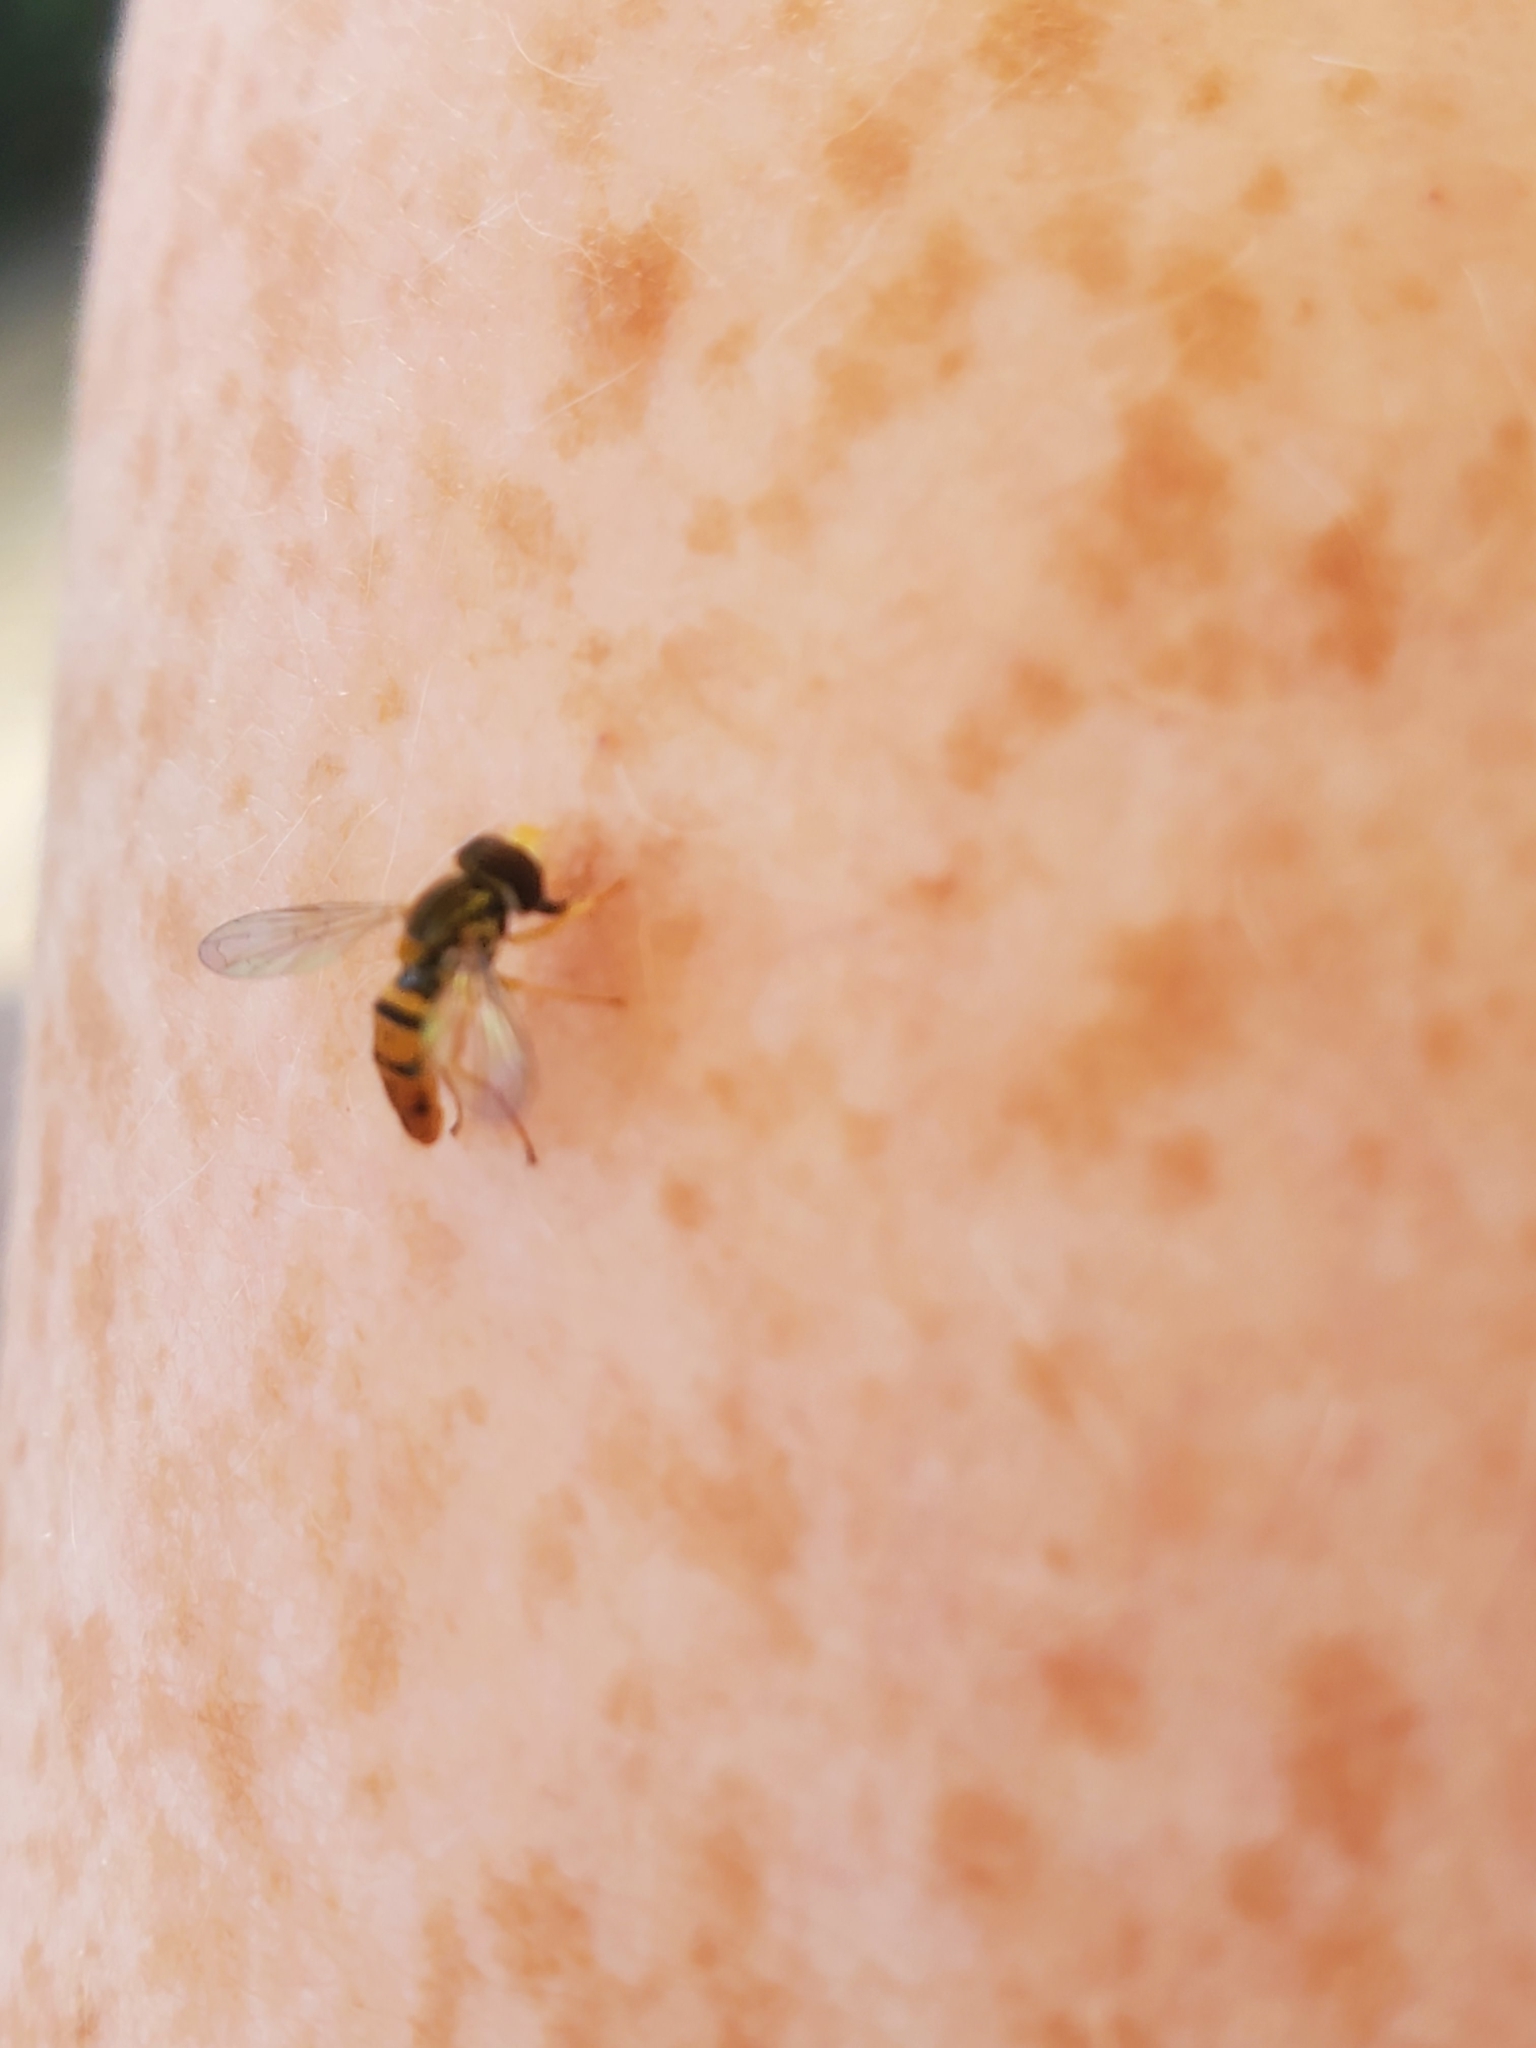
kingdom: Animalia
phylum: Arthropoda
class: Insecta
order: Diptera
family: Syrphidae
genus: Toxomerus
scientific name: Toxomerus marginatus
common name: Syrphid fly
